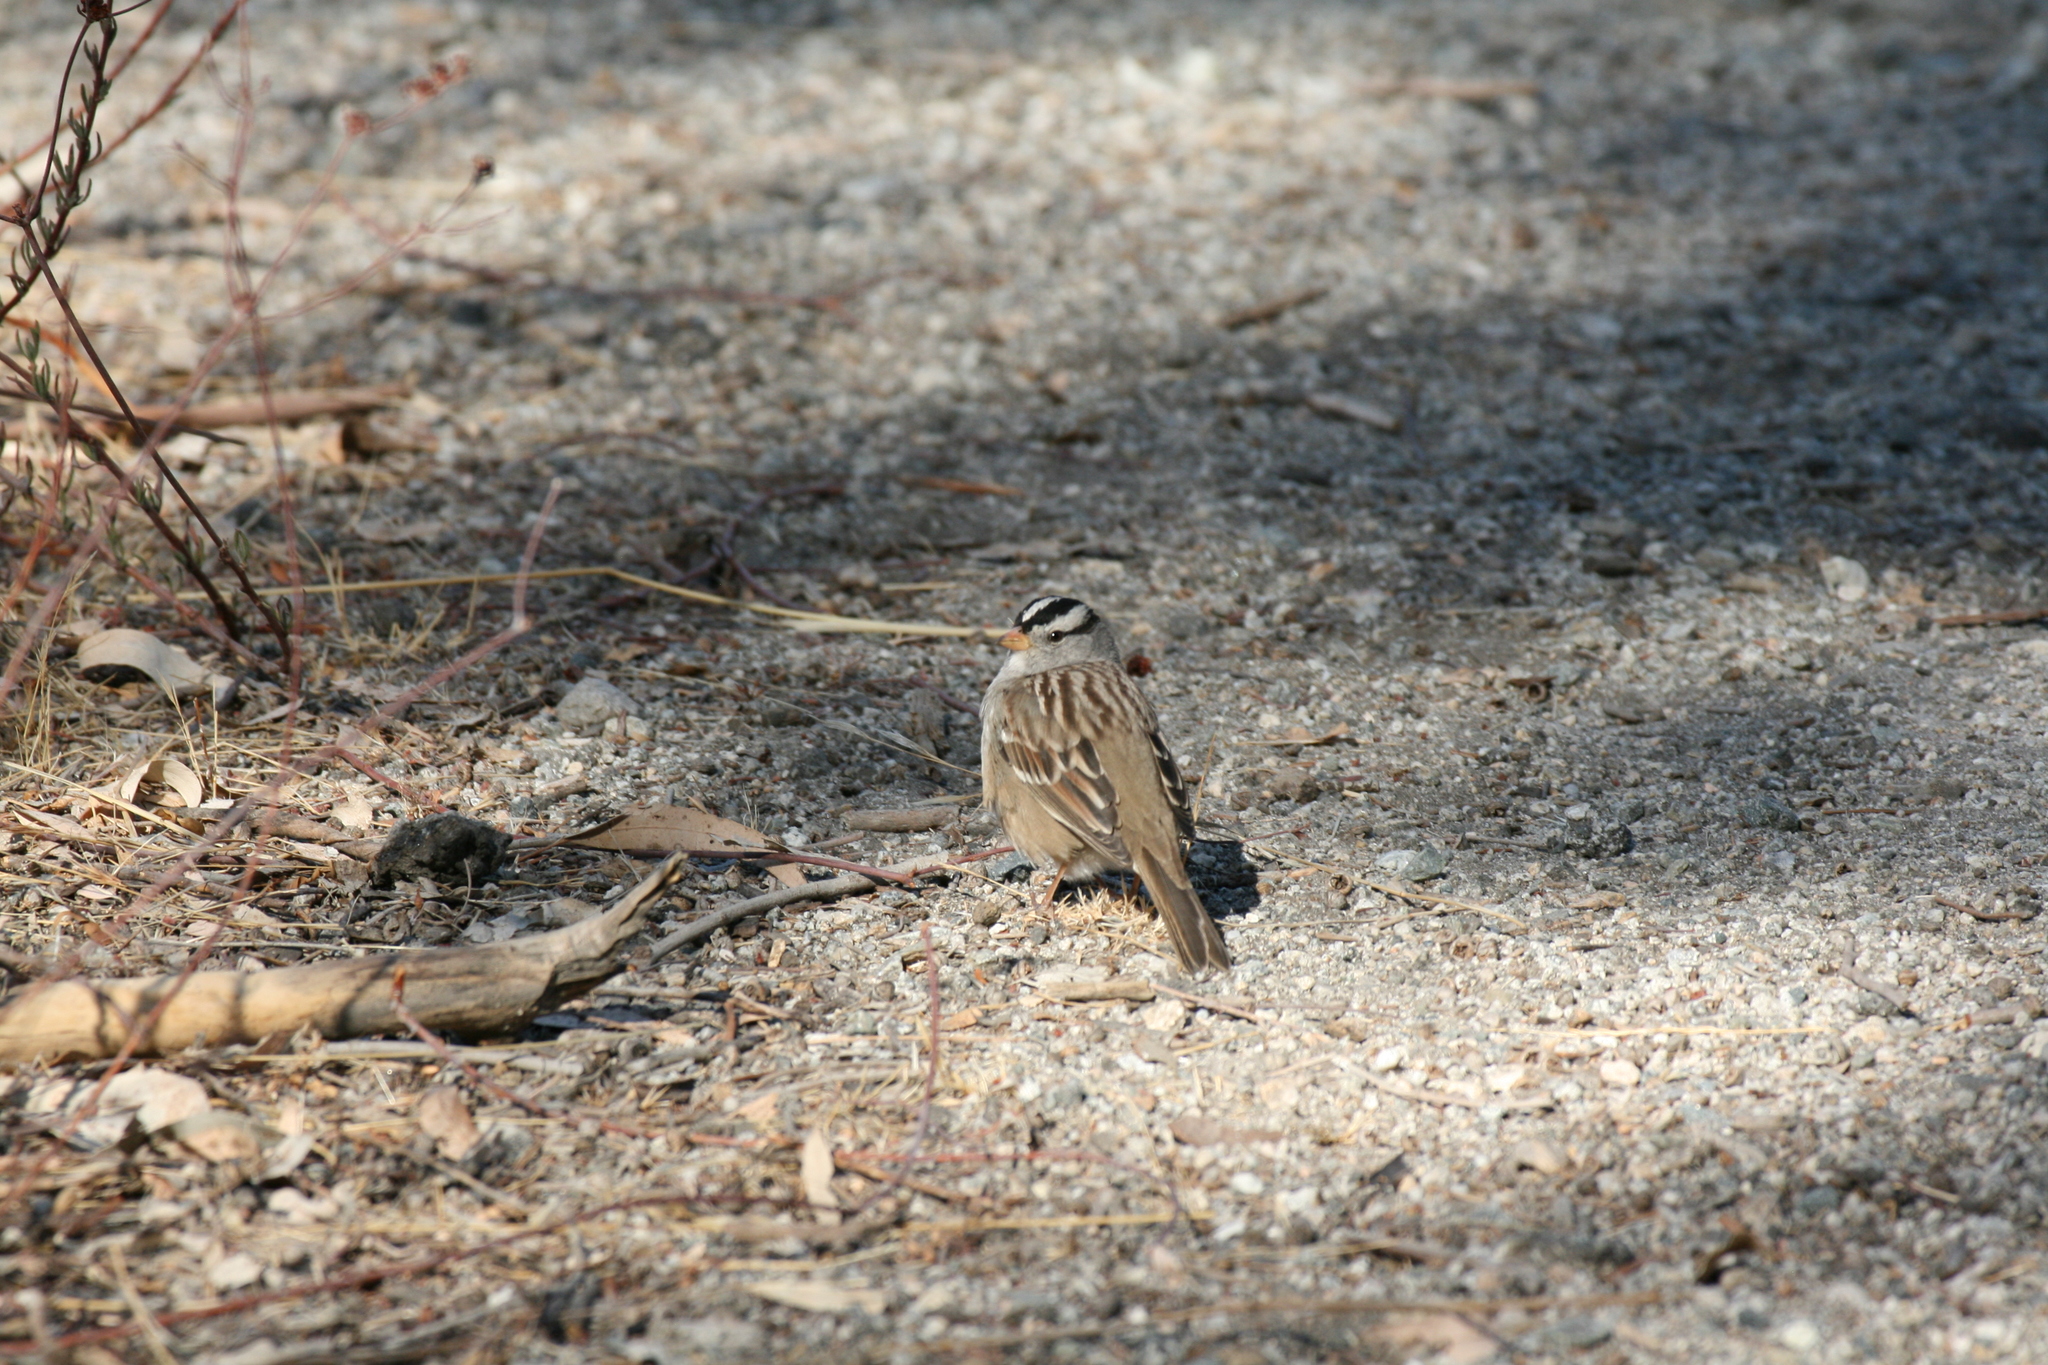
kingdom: Animalia
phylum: Chordata
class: Aves
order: Passeriformes
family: Passerellidae
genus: Zonotrichia
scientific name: Zonotrichia leucophrys
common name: White-crowned sparrow
